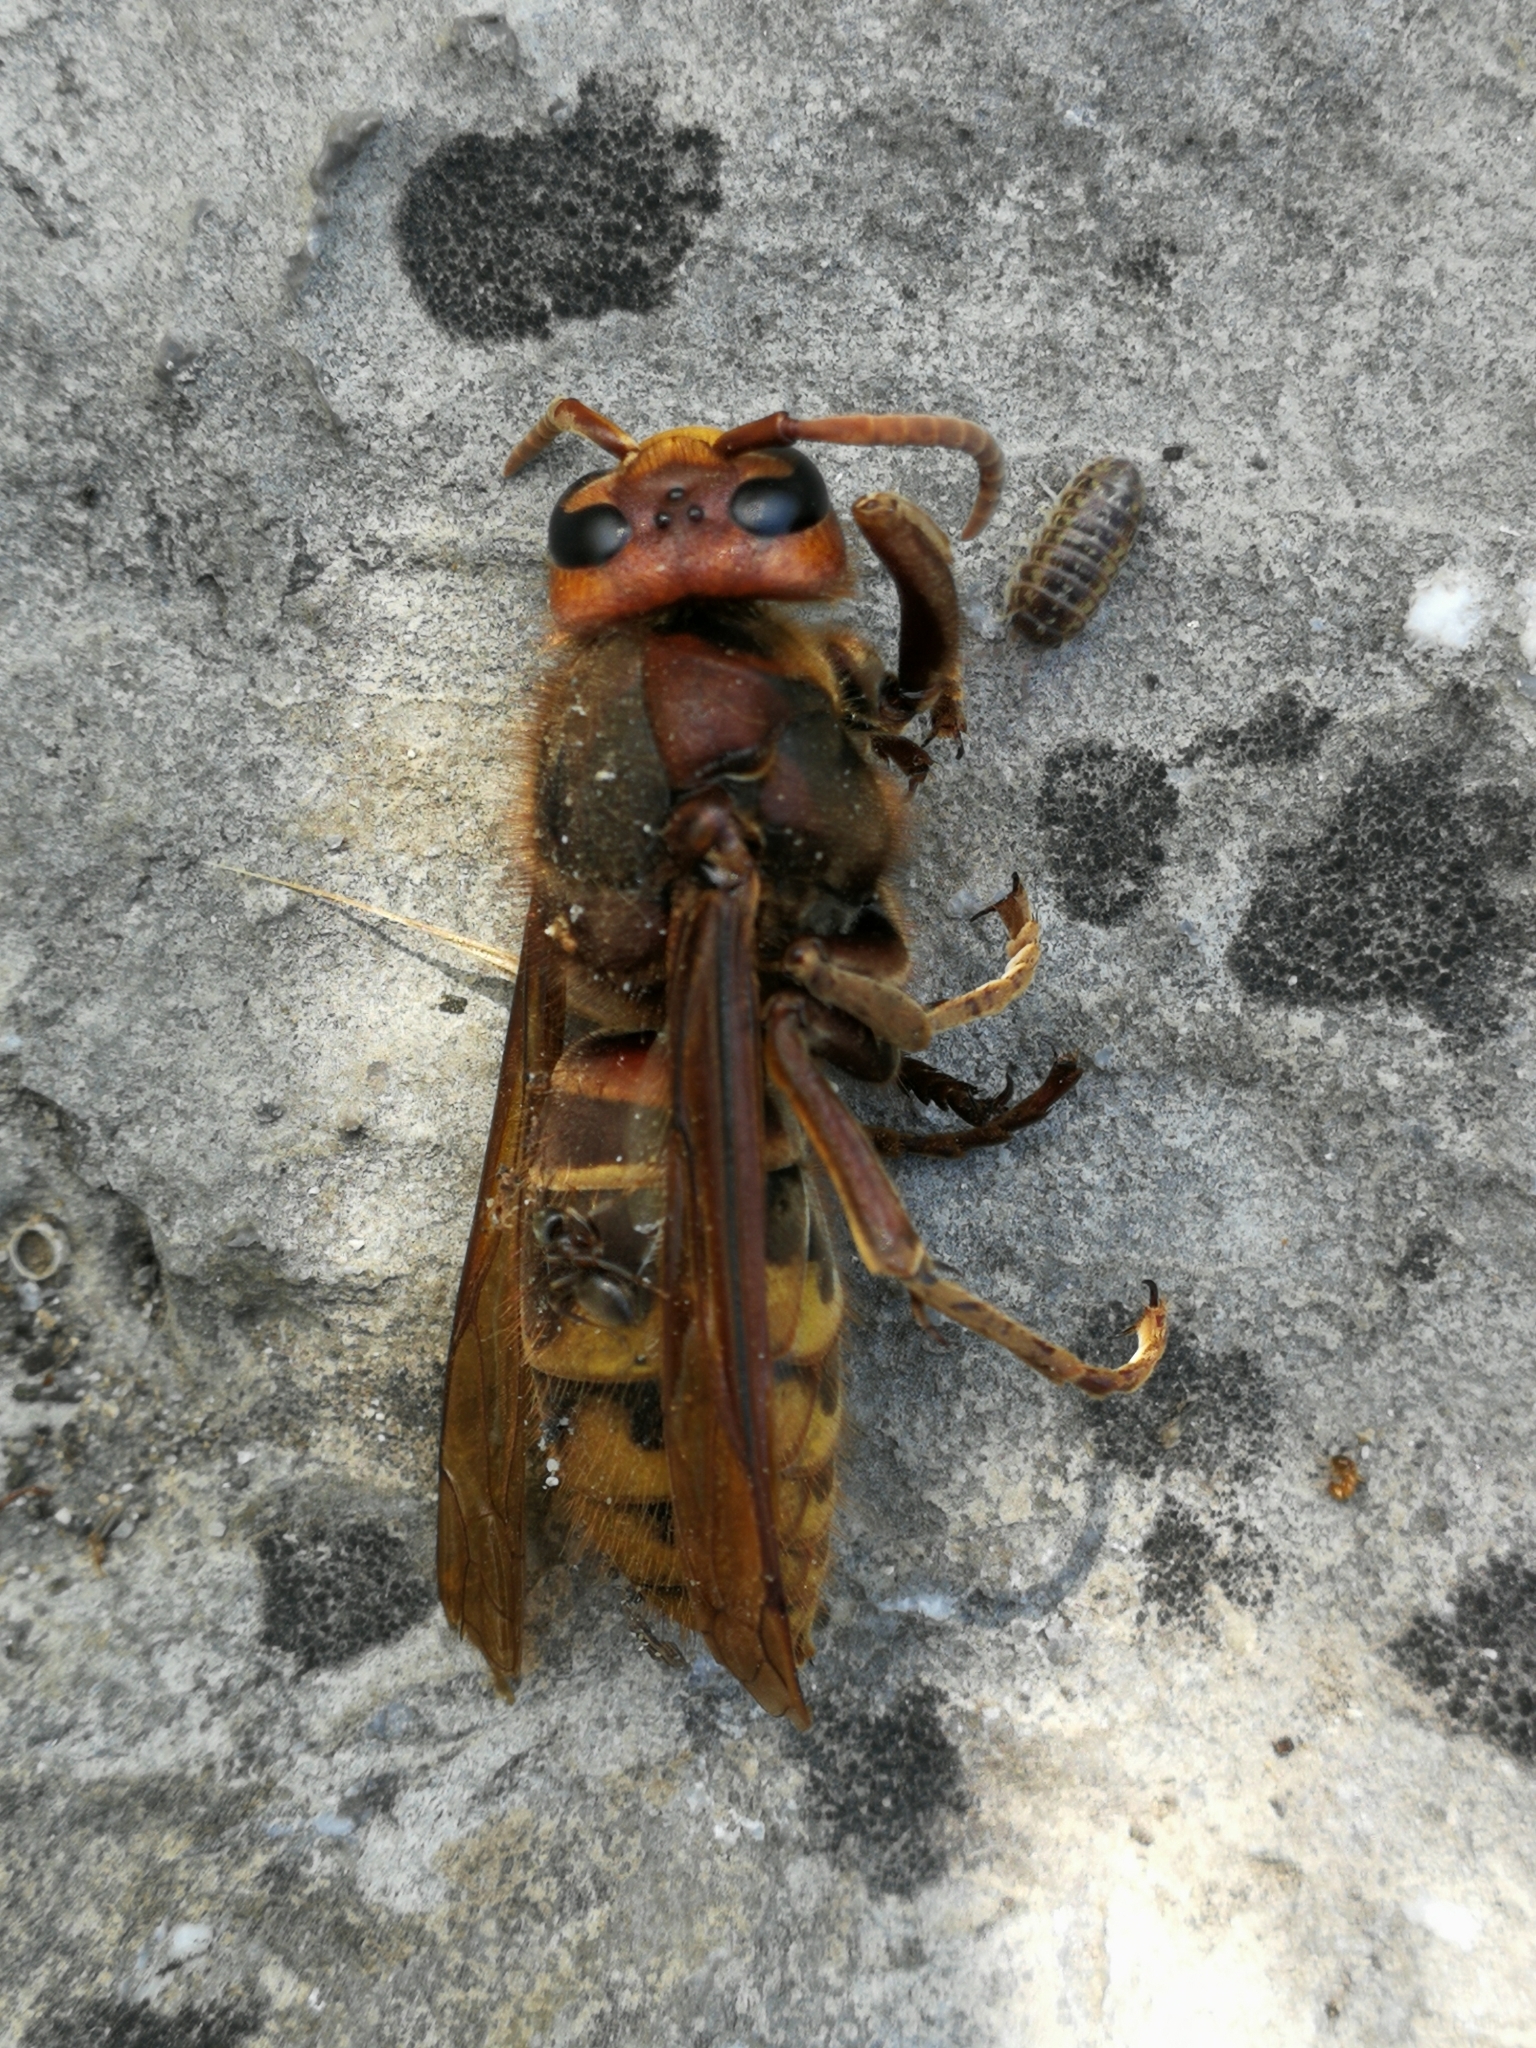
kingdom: Animalia
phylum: Arthropoda
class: Insecta
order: Hymenoptera
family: Vespidae
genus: Vespa
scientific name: Vespa crabro
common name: Hornet
